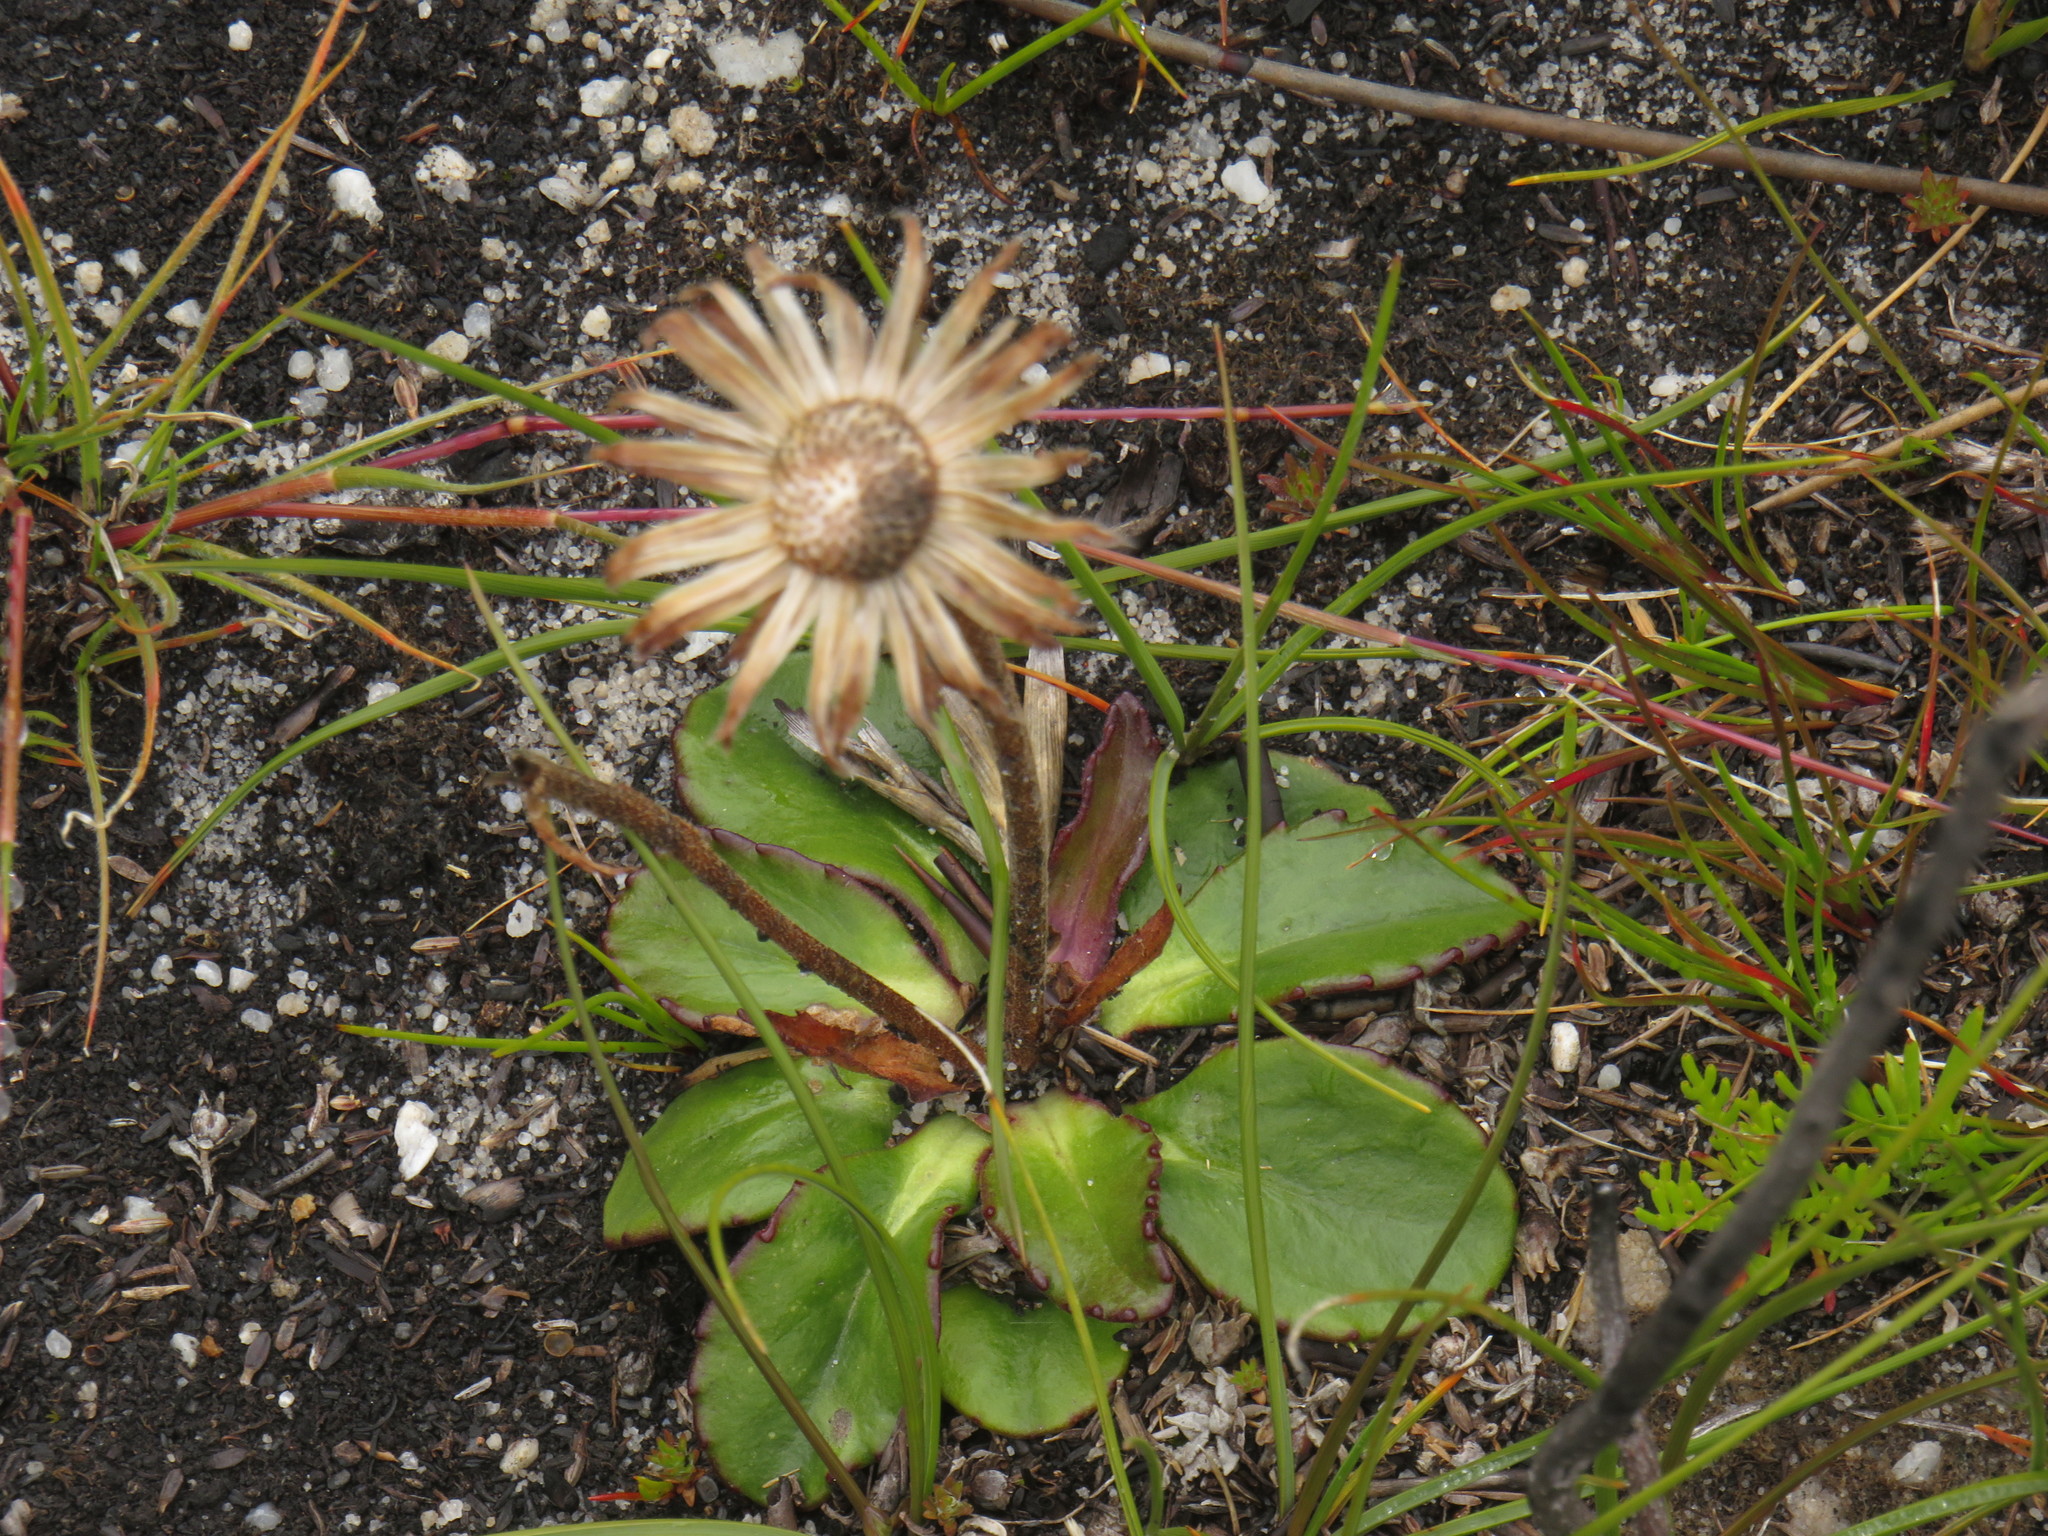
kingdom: Plantae
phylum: Tracheophyta
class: Magnoliopsida
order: Asterales
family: Asteraceae
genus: Zyrphelis
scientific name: Zyrphelis crenata
